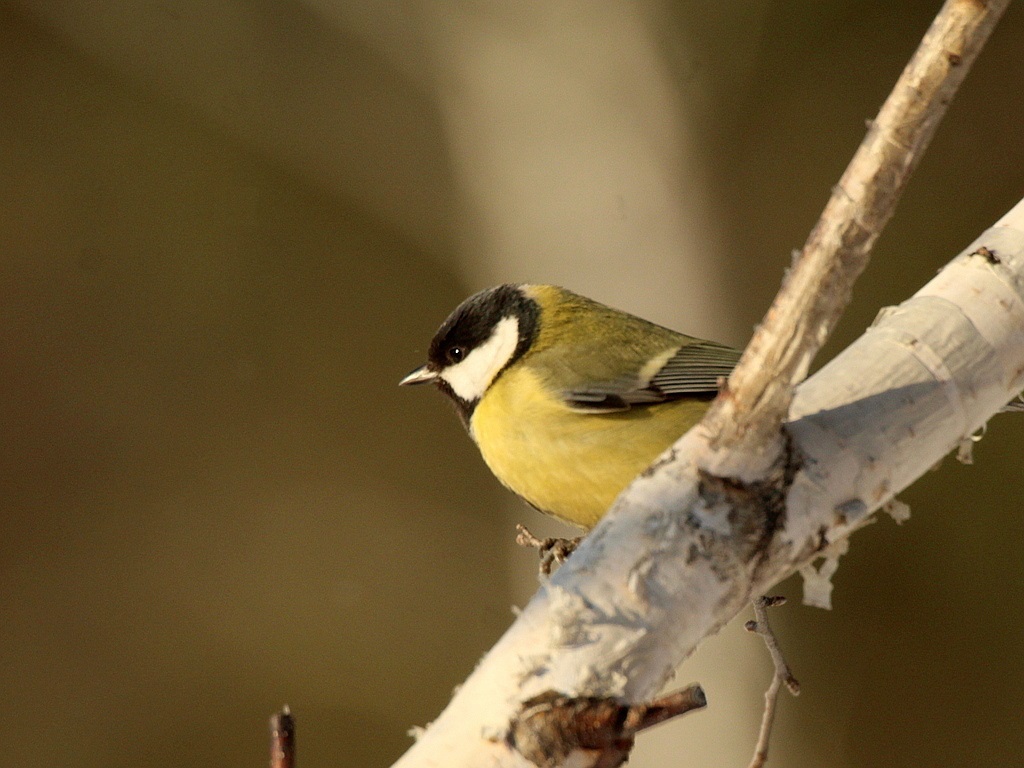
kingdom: Animalia
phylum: Chordata
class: Aves
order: Passeriformes
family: Paridae
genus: Parus
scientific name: Parus major
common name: Great tit
